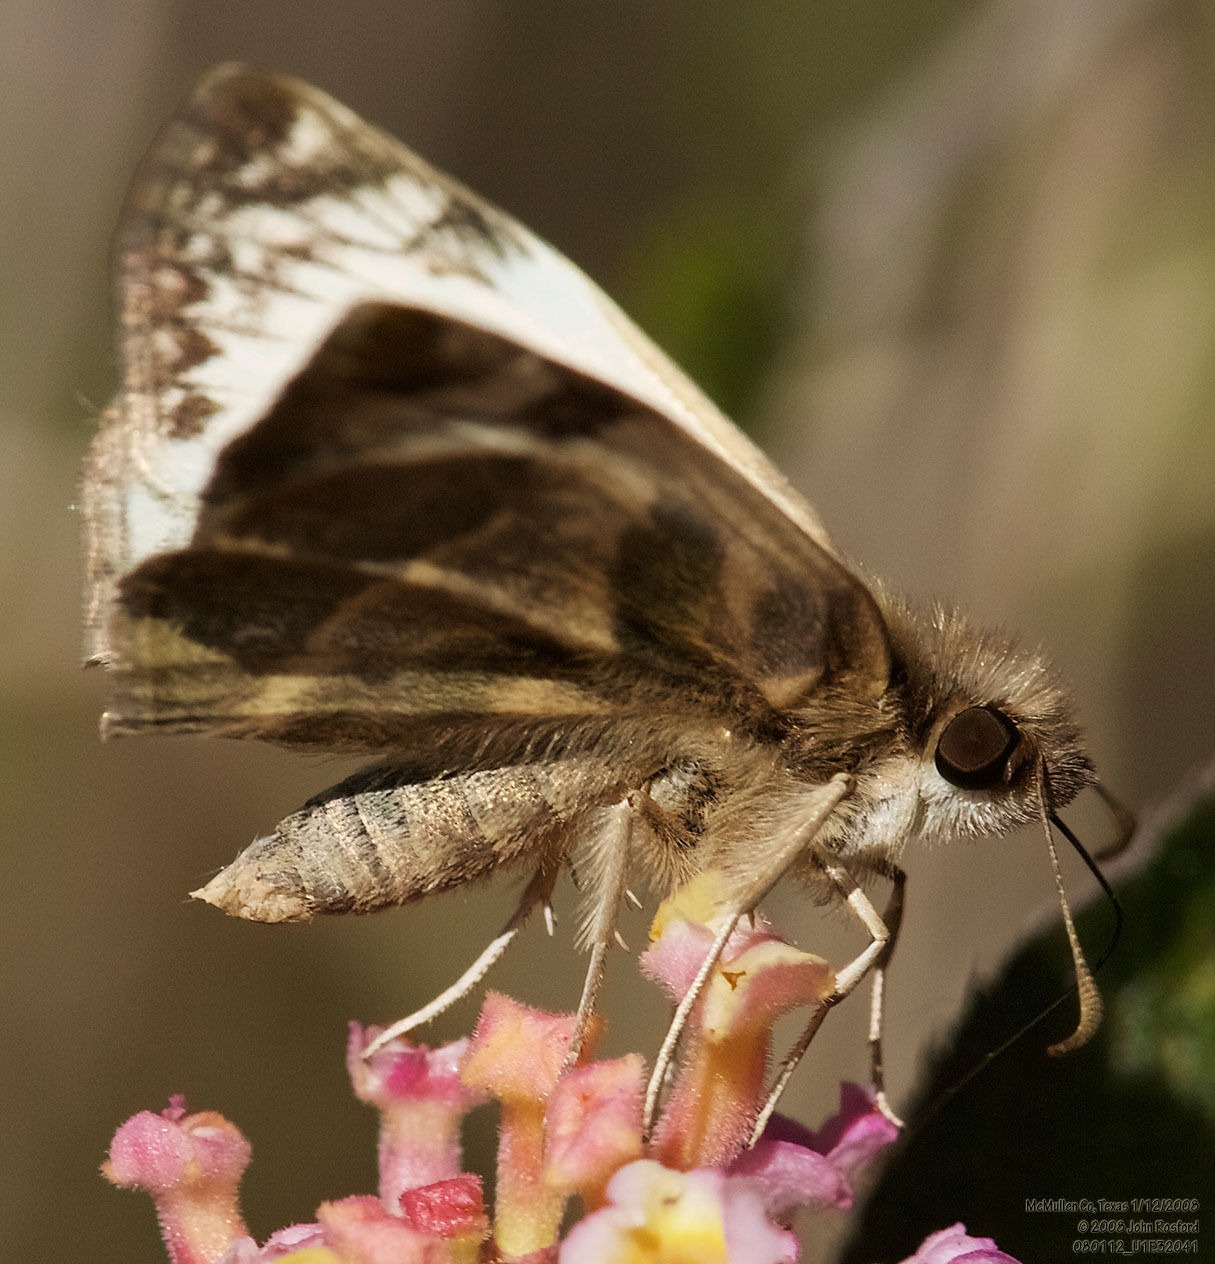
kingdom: Animalia
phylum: Arthropoda
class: Insecta
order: Lepidoptera
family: Hesperiidae
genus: Heliopetes
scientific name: Heliopetes laviana
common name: Laviana white-skipper
